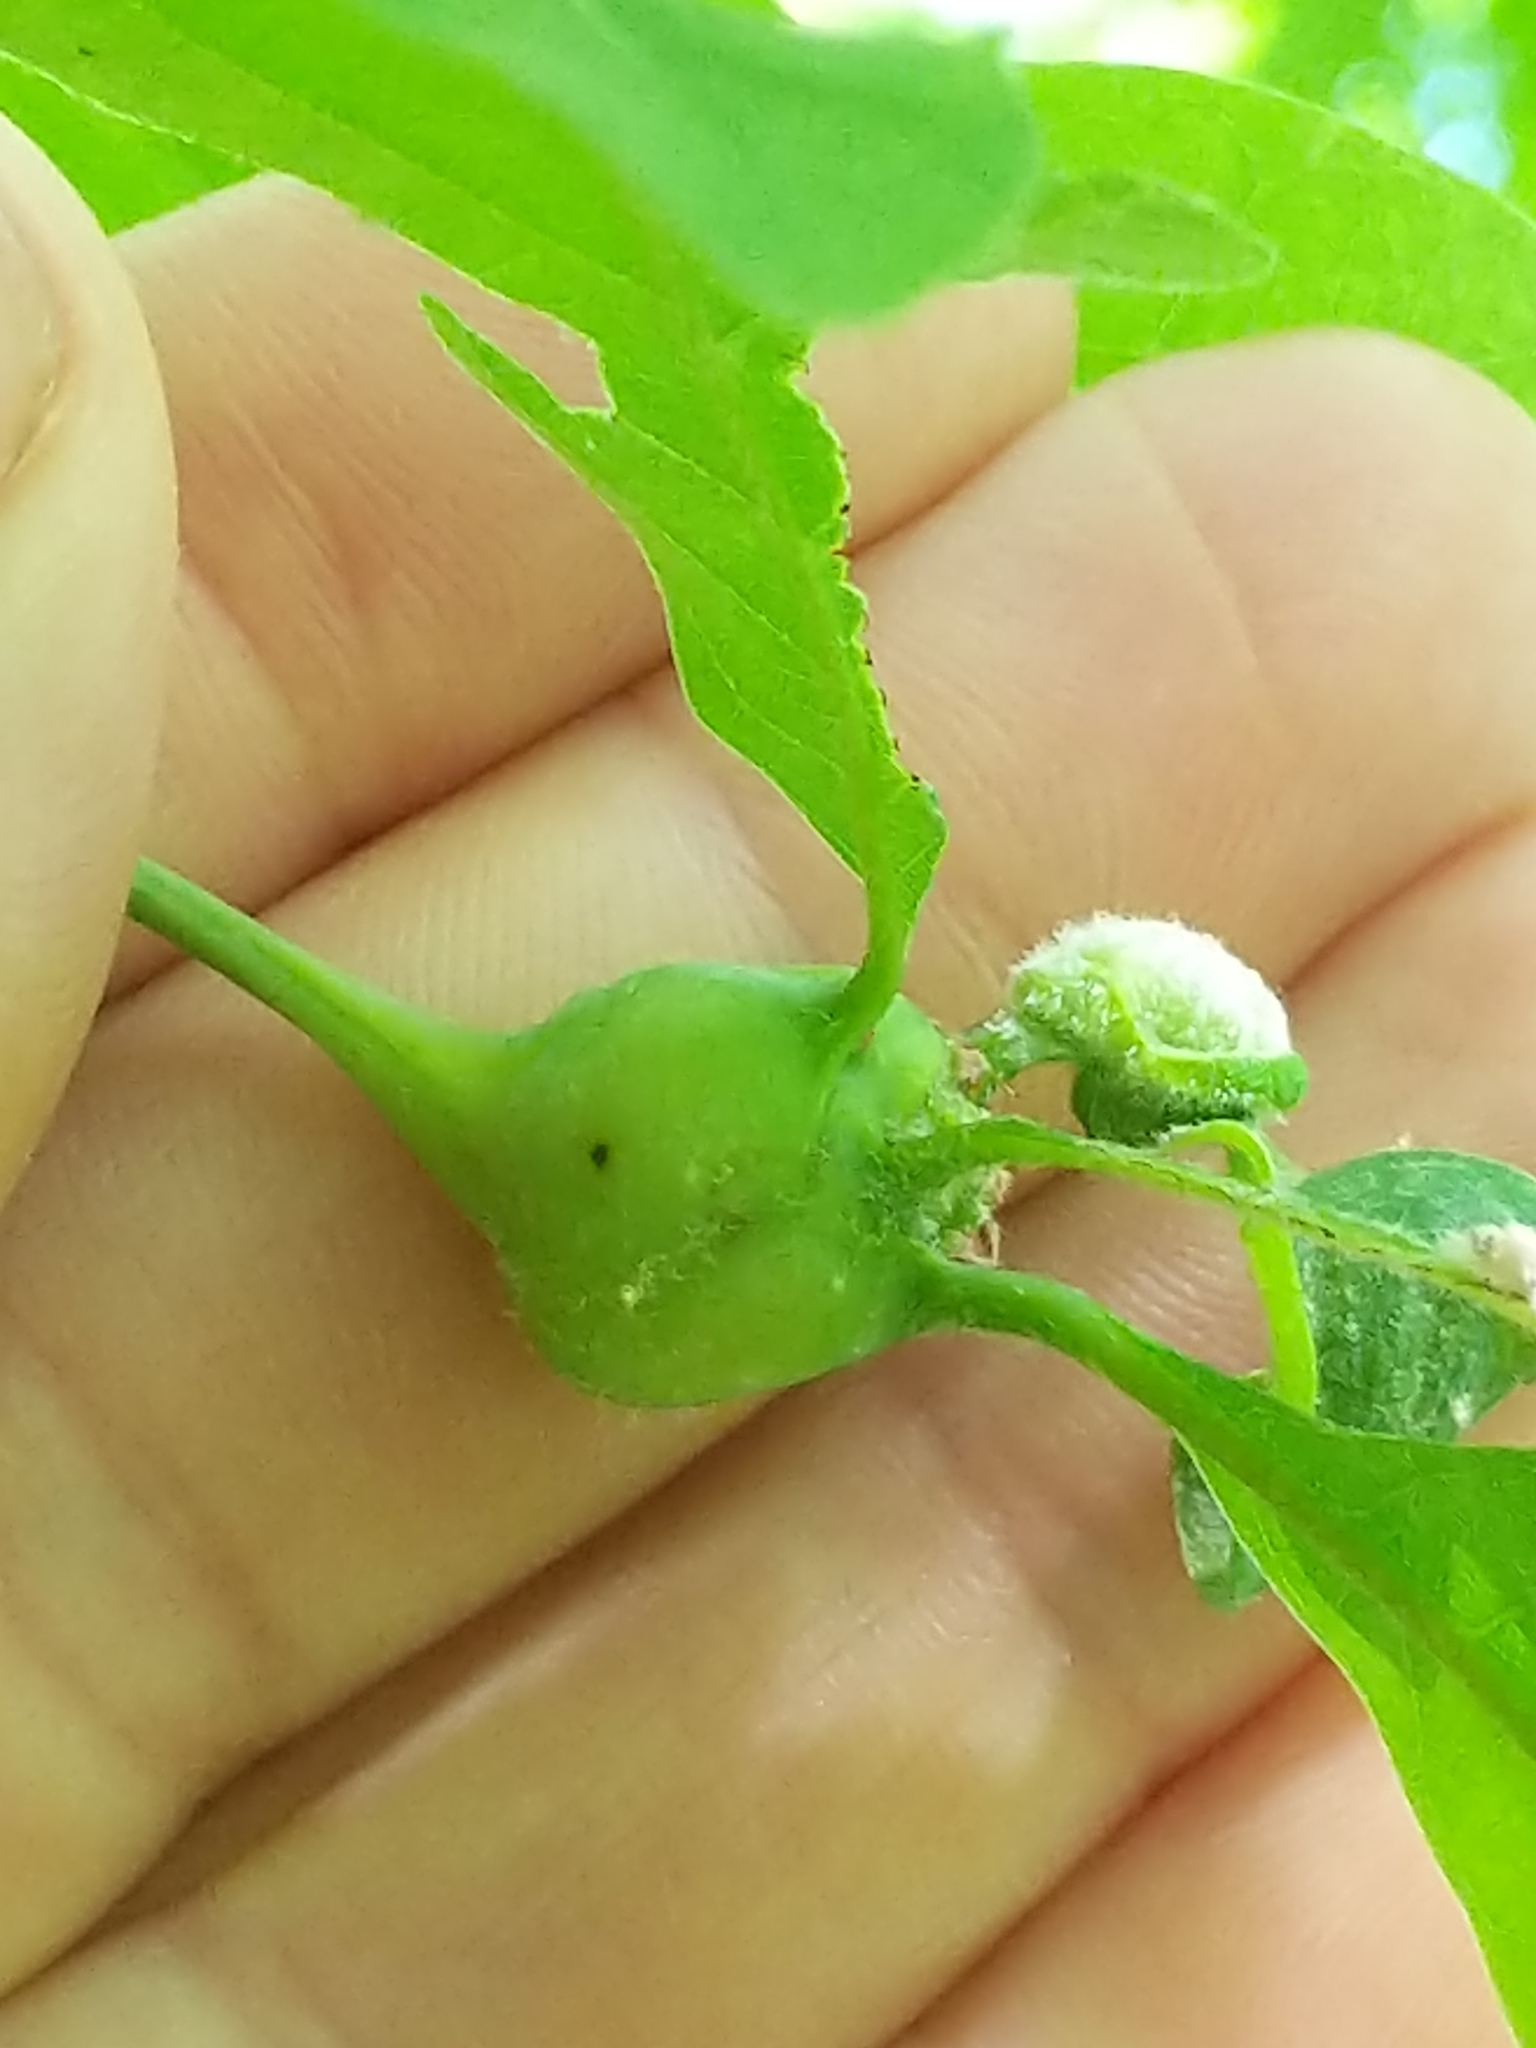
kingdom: Animalia
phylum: Arthropoda
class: Insecta
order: Hymenoptera
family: Cynipidae
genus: Callirhytis
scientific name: Callirhytis clavula
